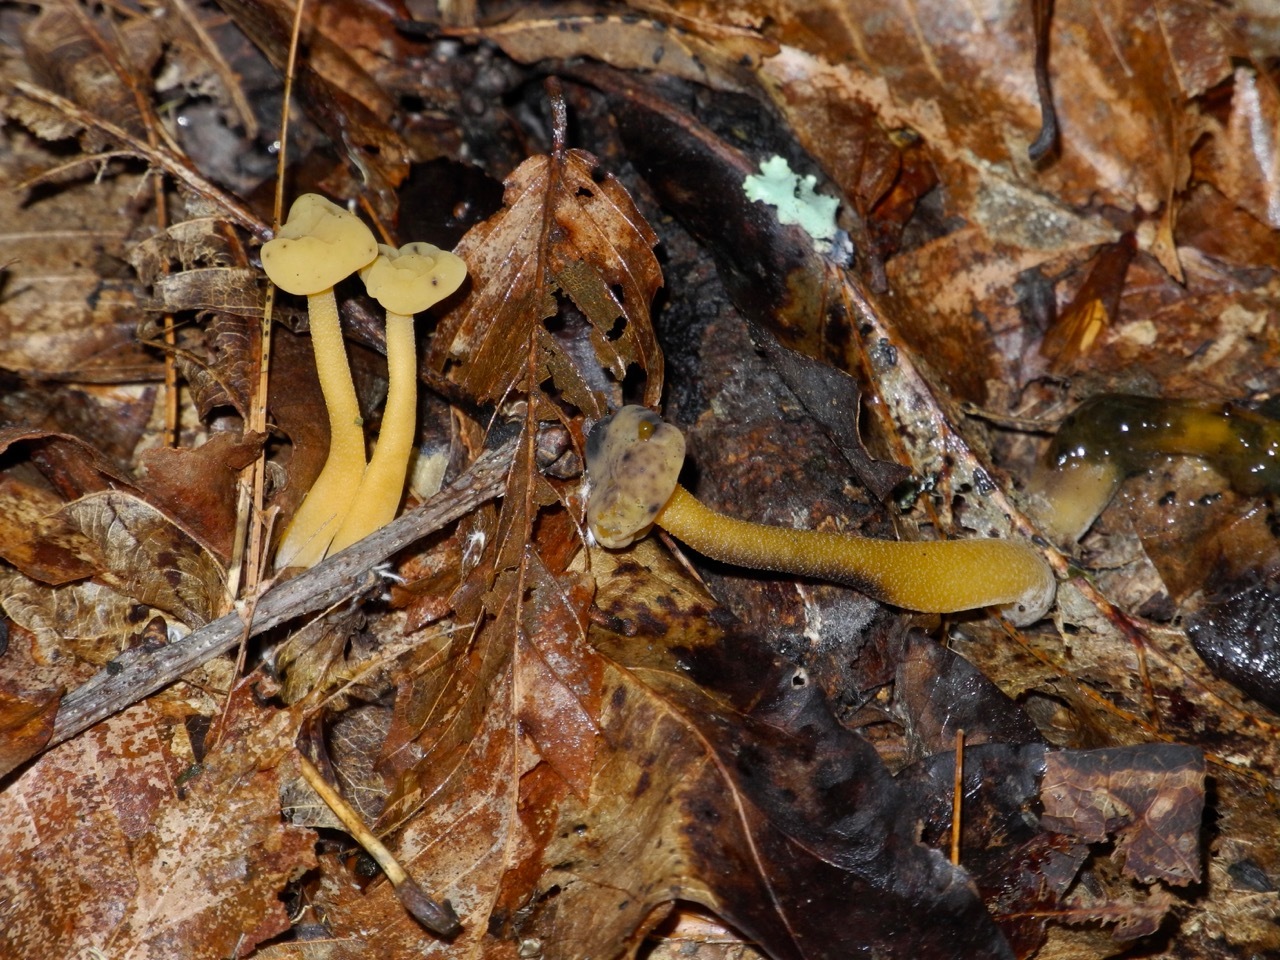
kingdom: Fungi
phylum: Ascomycota
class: Leotiomycetes
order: Leotiales
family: Leotiaceae
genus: Leotia
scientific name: Leotia lubrica
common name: Jellybaby
